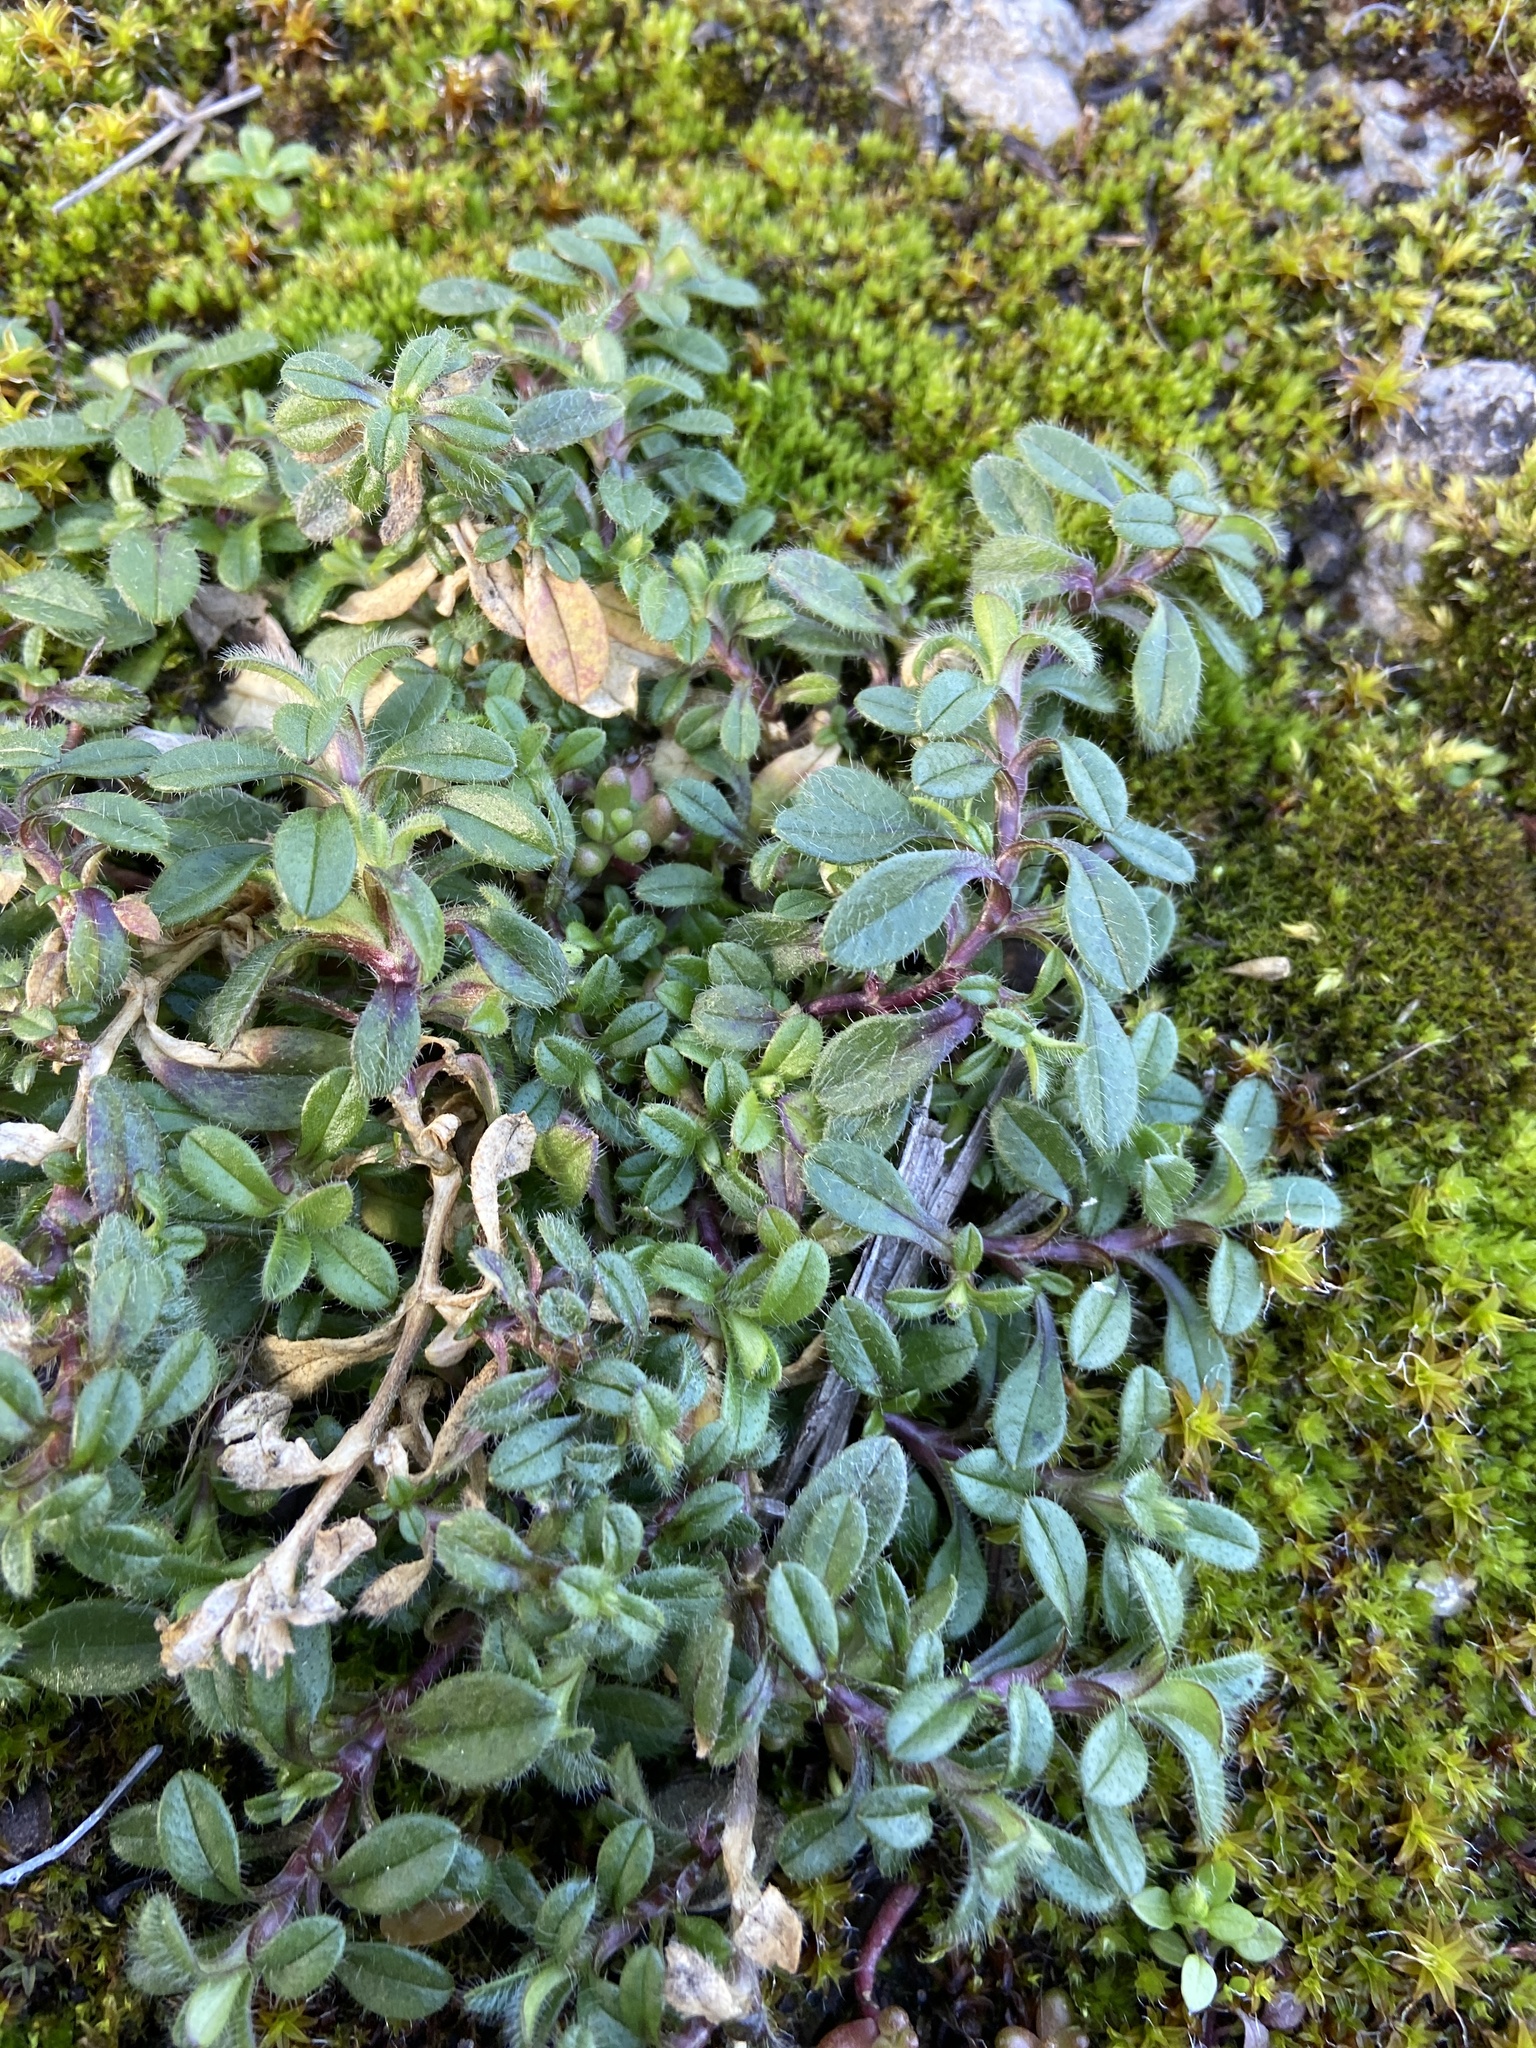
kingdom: Plantae
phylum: Tracheophyta
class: Magnoliopsida
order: Caryophyllales
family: Caryophyllaceae
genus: Cerastium
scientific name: Cerastium holosteoides
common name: Big chickweed
